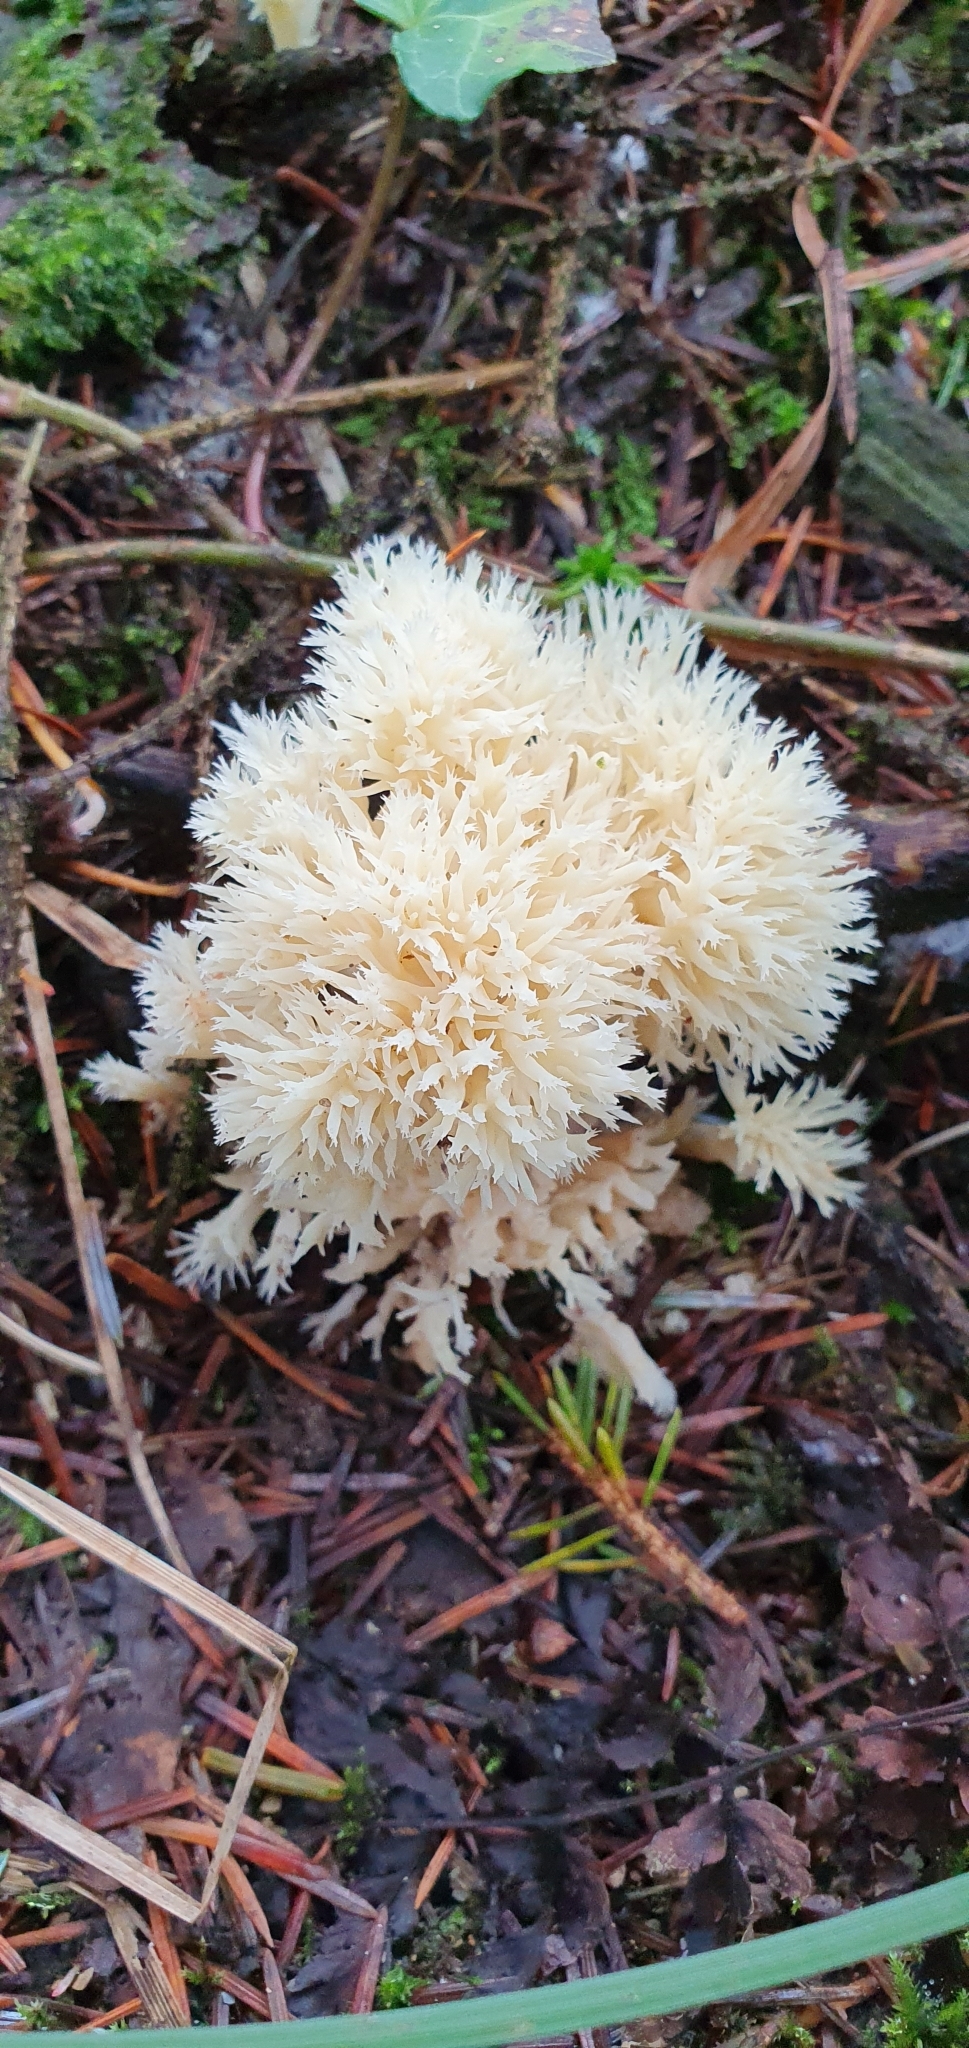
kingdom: Fungi
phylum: Basidiomycota
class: Agaricomycetes
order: Cantharellales
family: Hydnaceae
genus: Clavulina
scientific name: Clavulina coralloides
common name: Crested coral
